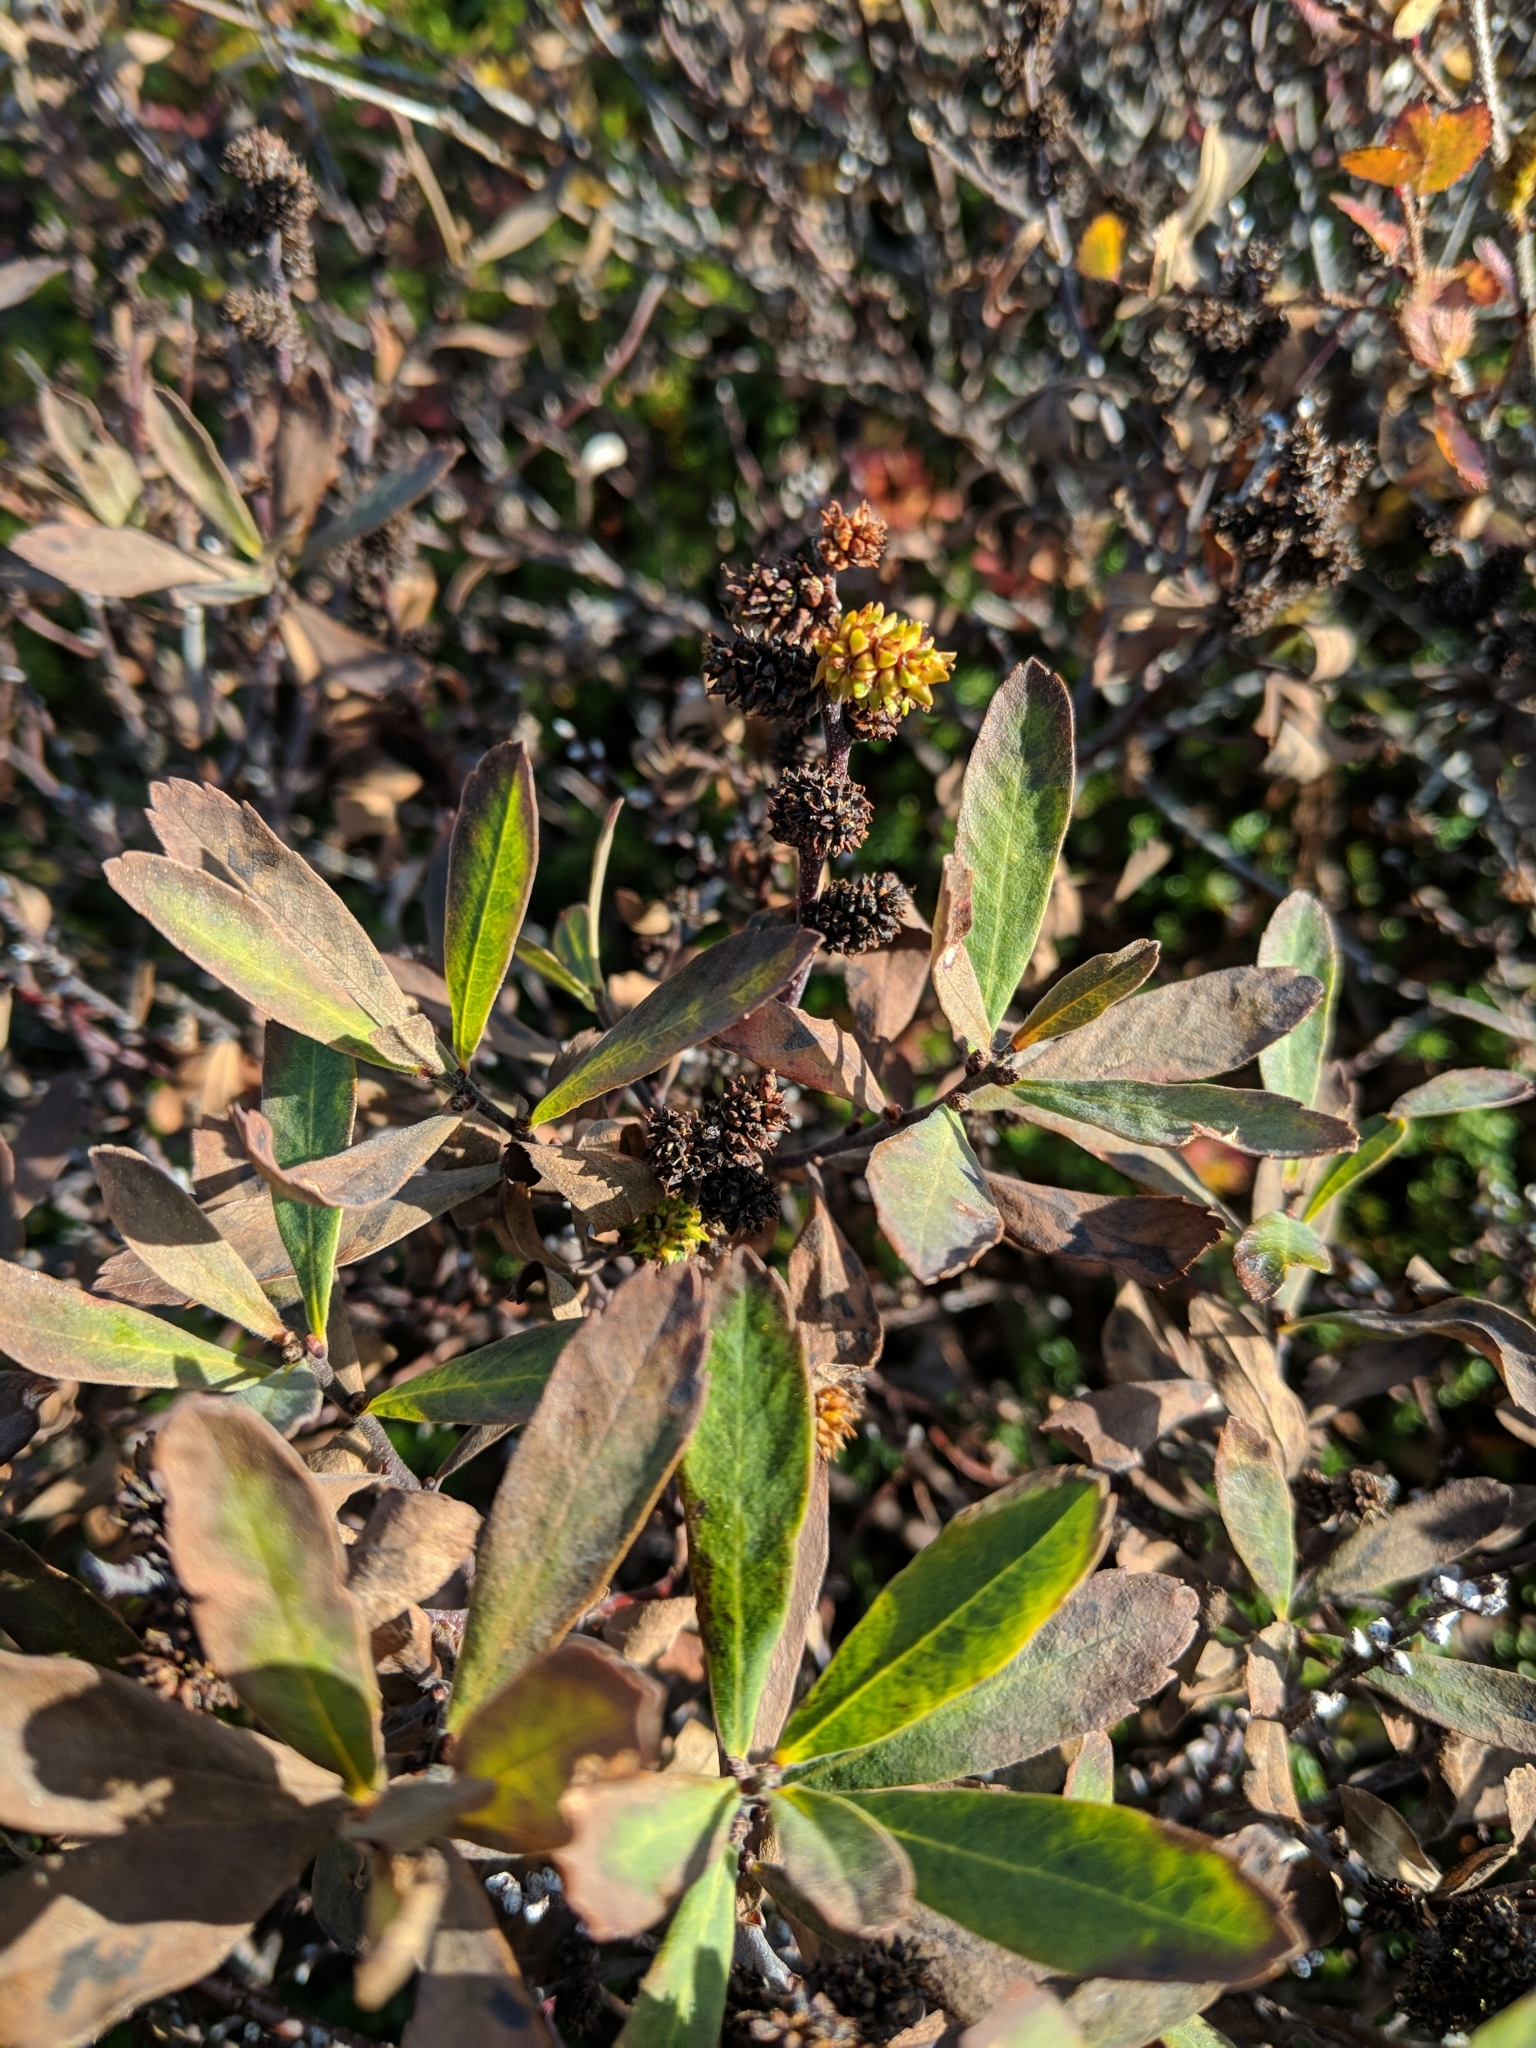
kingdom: Plantae
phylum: Tracheophyta
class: Magnoliopsida
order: Fagales
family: Myricaceae
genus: Myrica
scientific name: Myrica gale
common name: Sweet gale
